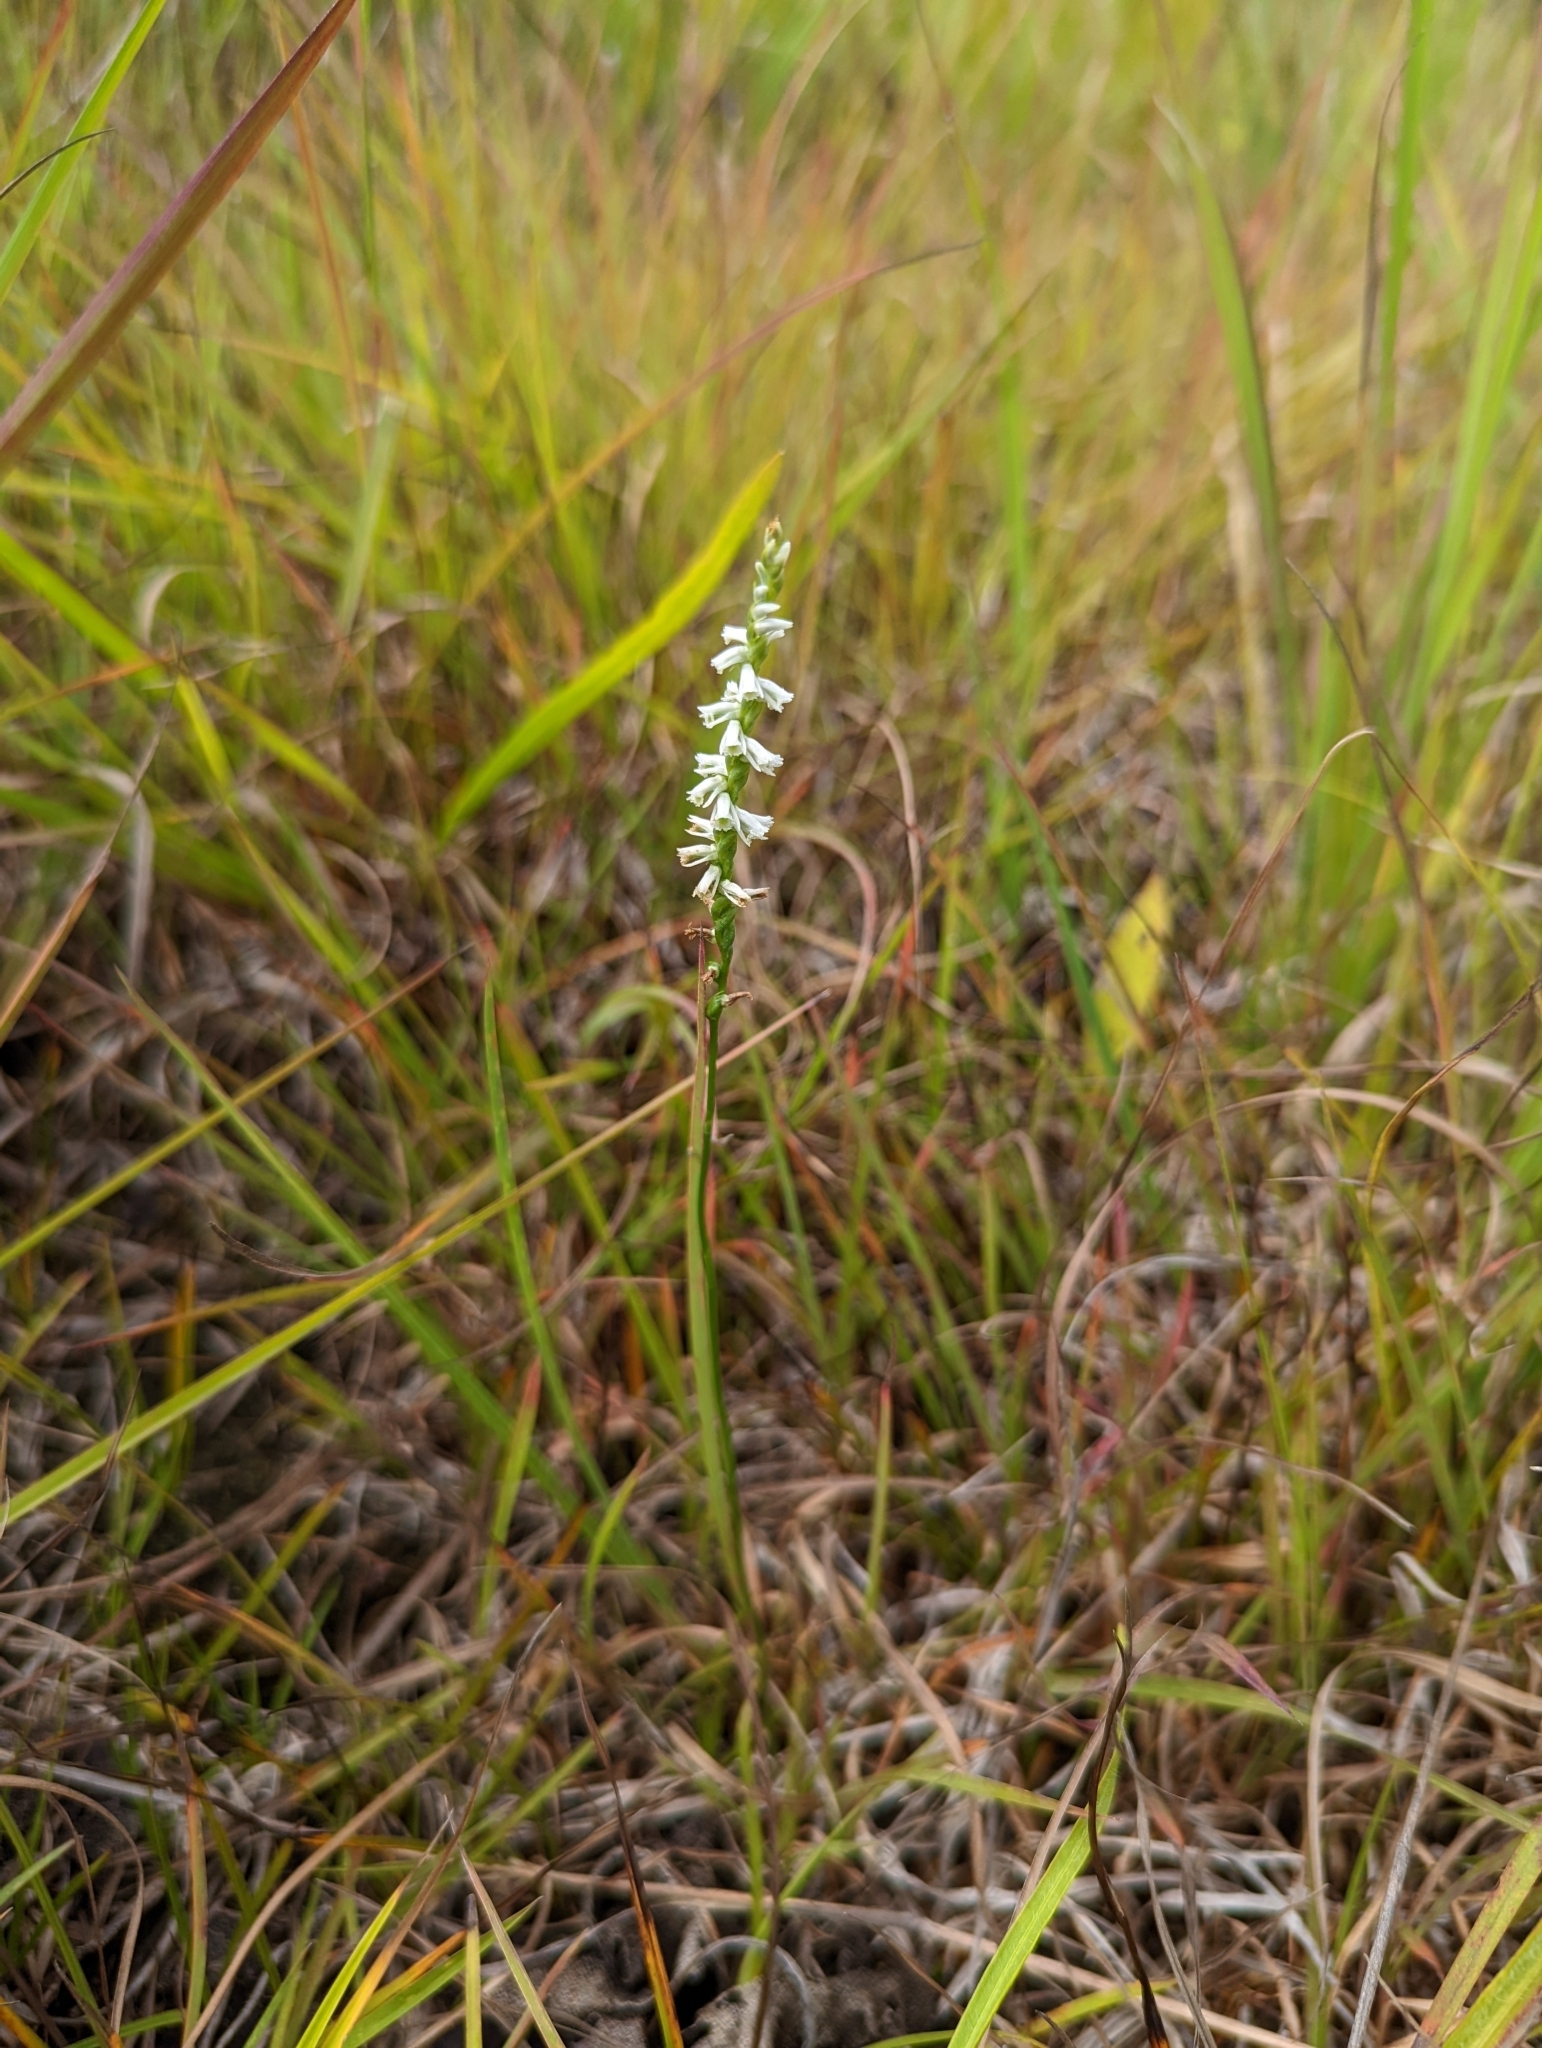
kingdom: Plantae
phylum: Tracheophyta
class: Liliopsida
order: Asparagales
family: Orchidaceae
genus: Spiranthes
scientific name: Spiranthes lacera
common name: Northern slender ladies'-tresses
